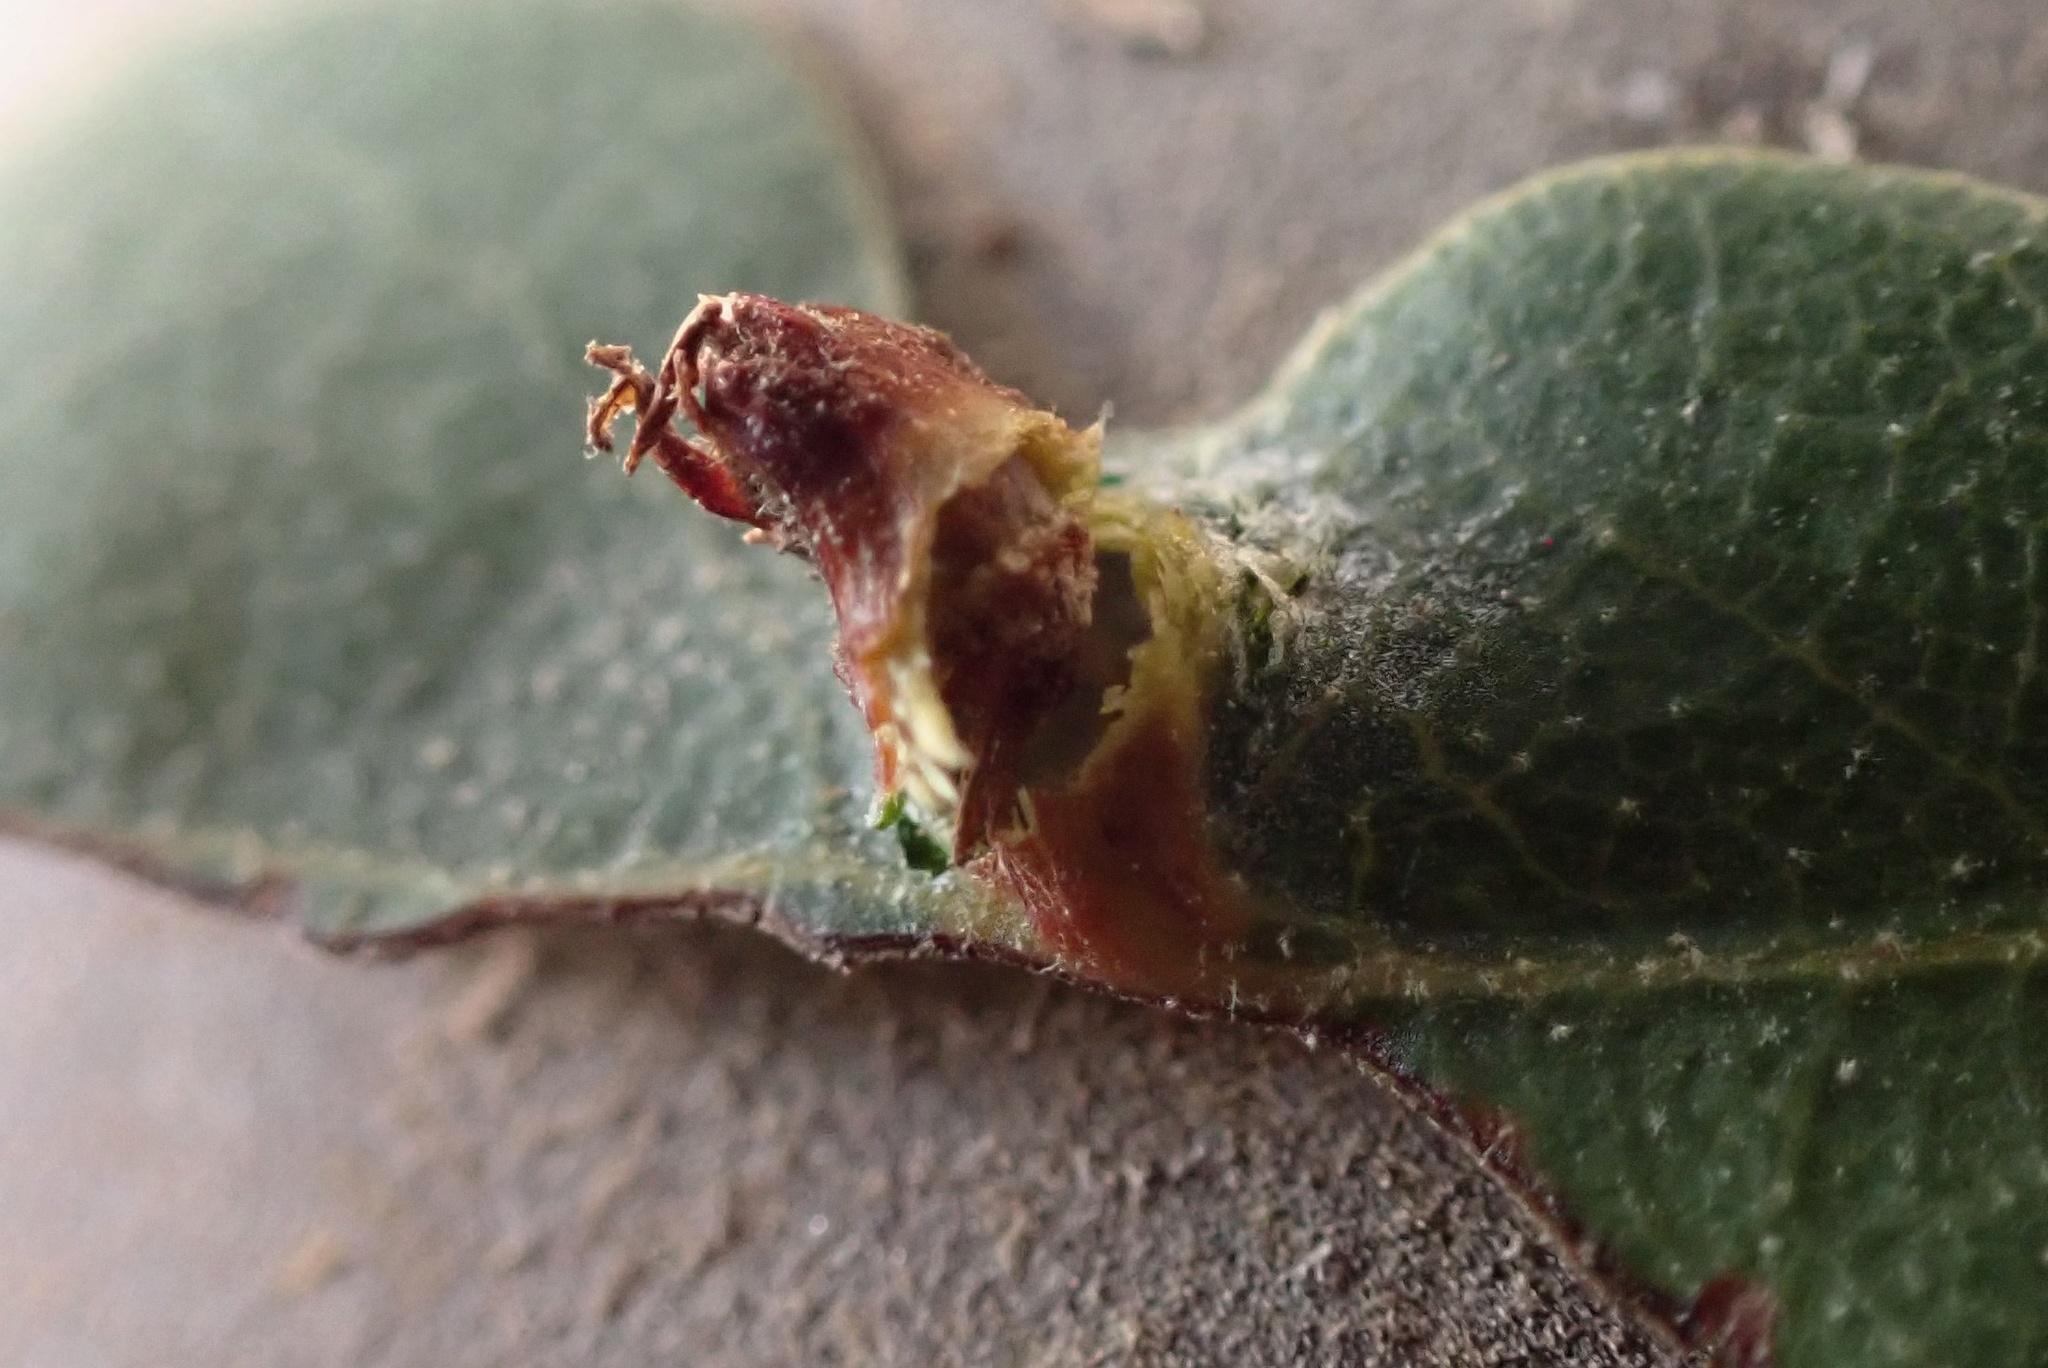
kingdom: Animalia
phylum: Arthropoda
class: Insecta
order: Hymenoptera
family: Cynipidae
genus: Andricus
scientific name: Andricus
